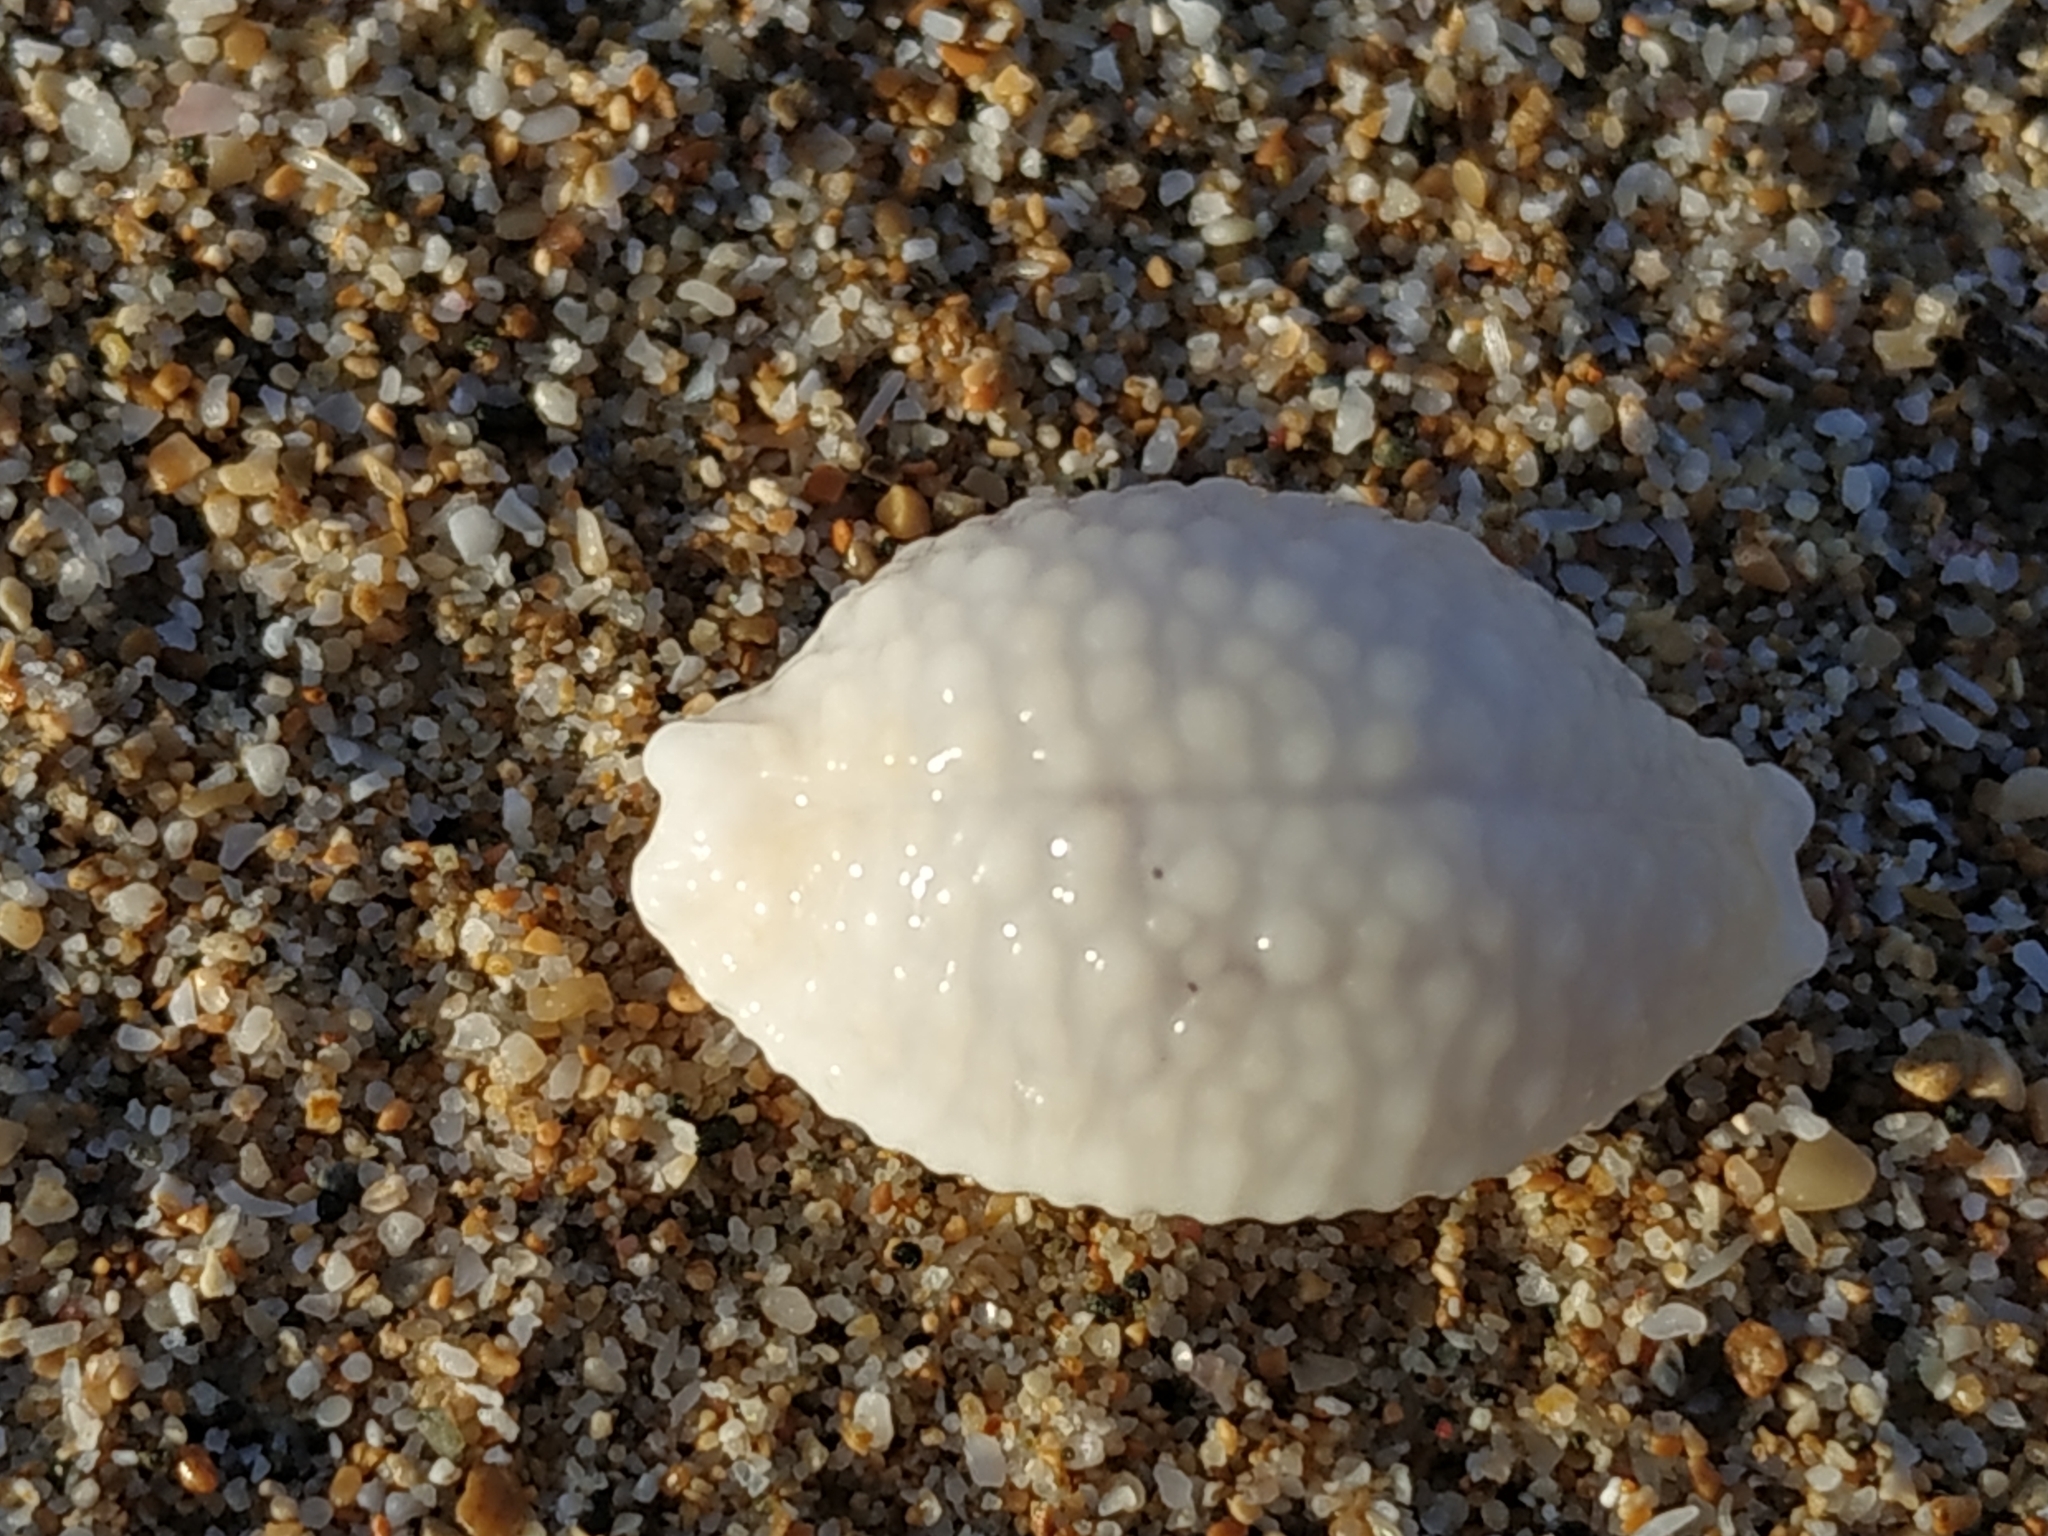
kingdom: Animalia
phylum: Mollusca
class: Gastropoda
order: Littorinimorpha
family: Cypraeidae
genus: Nucleolaria
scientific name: Nucleolaria nucleus
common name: Kernel cowry
